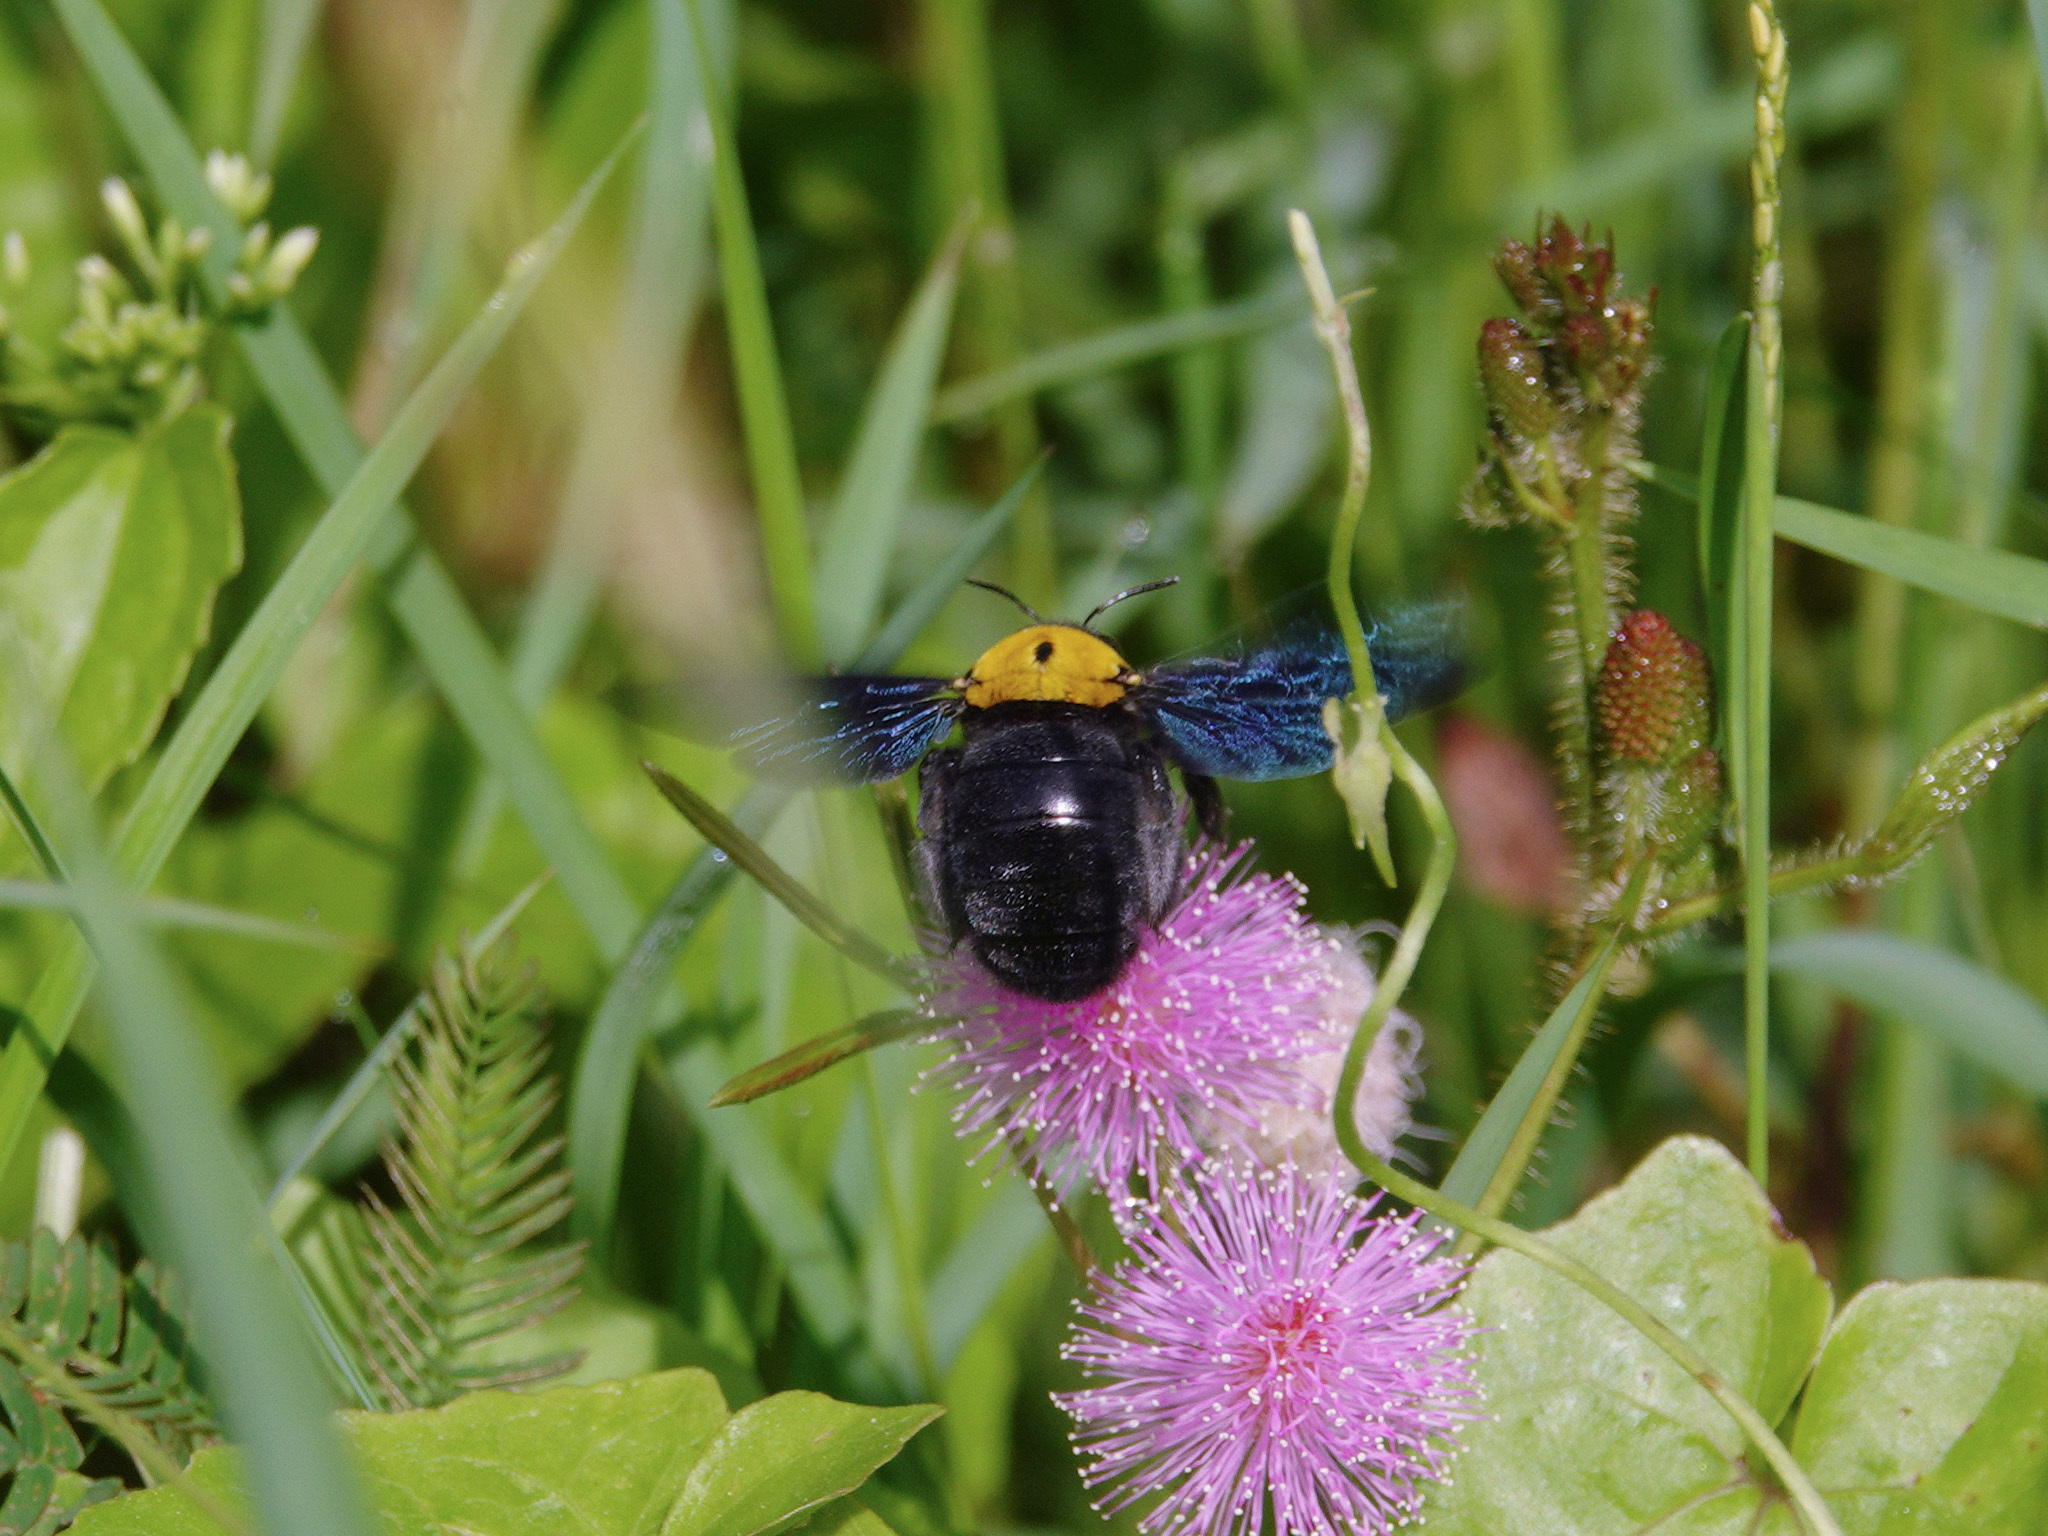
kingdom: Animalia
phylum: Arthropoda
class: Insecta
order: Hymenoptera
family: Apidae
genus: Xylocopa
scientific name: Xylocopa aestuans
